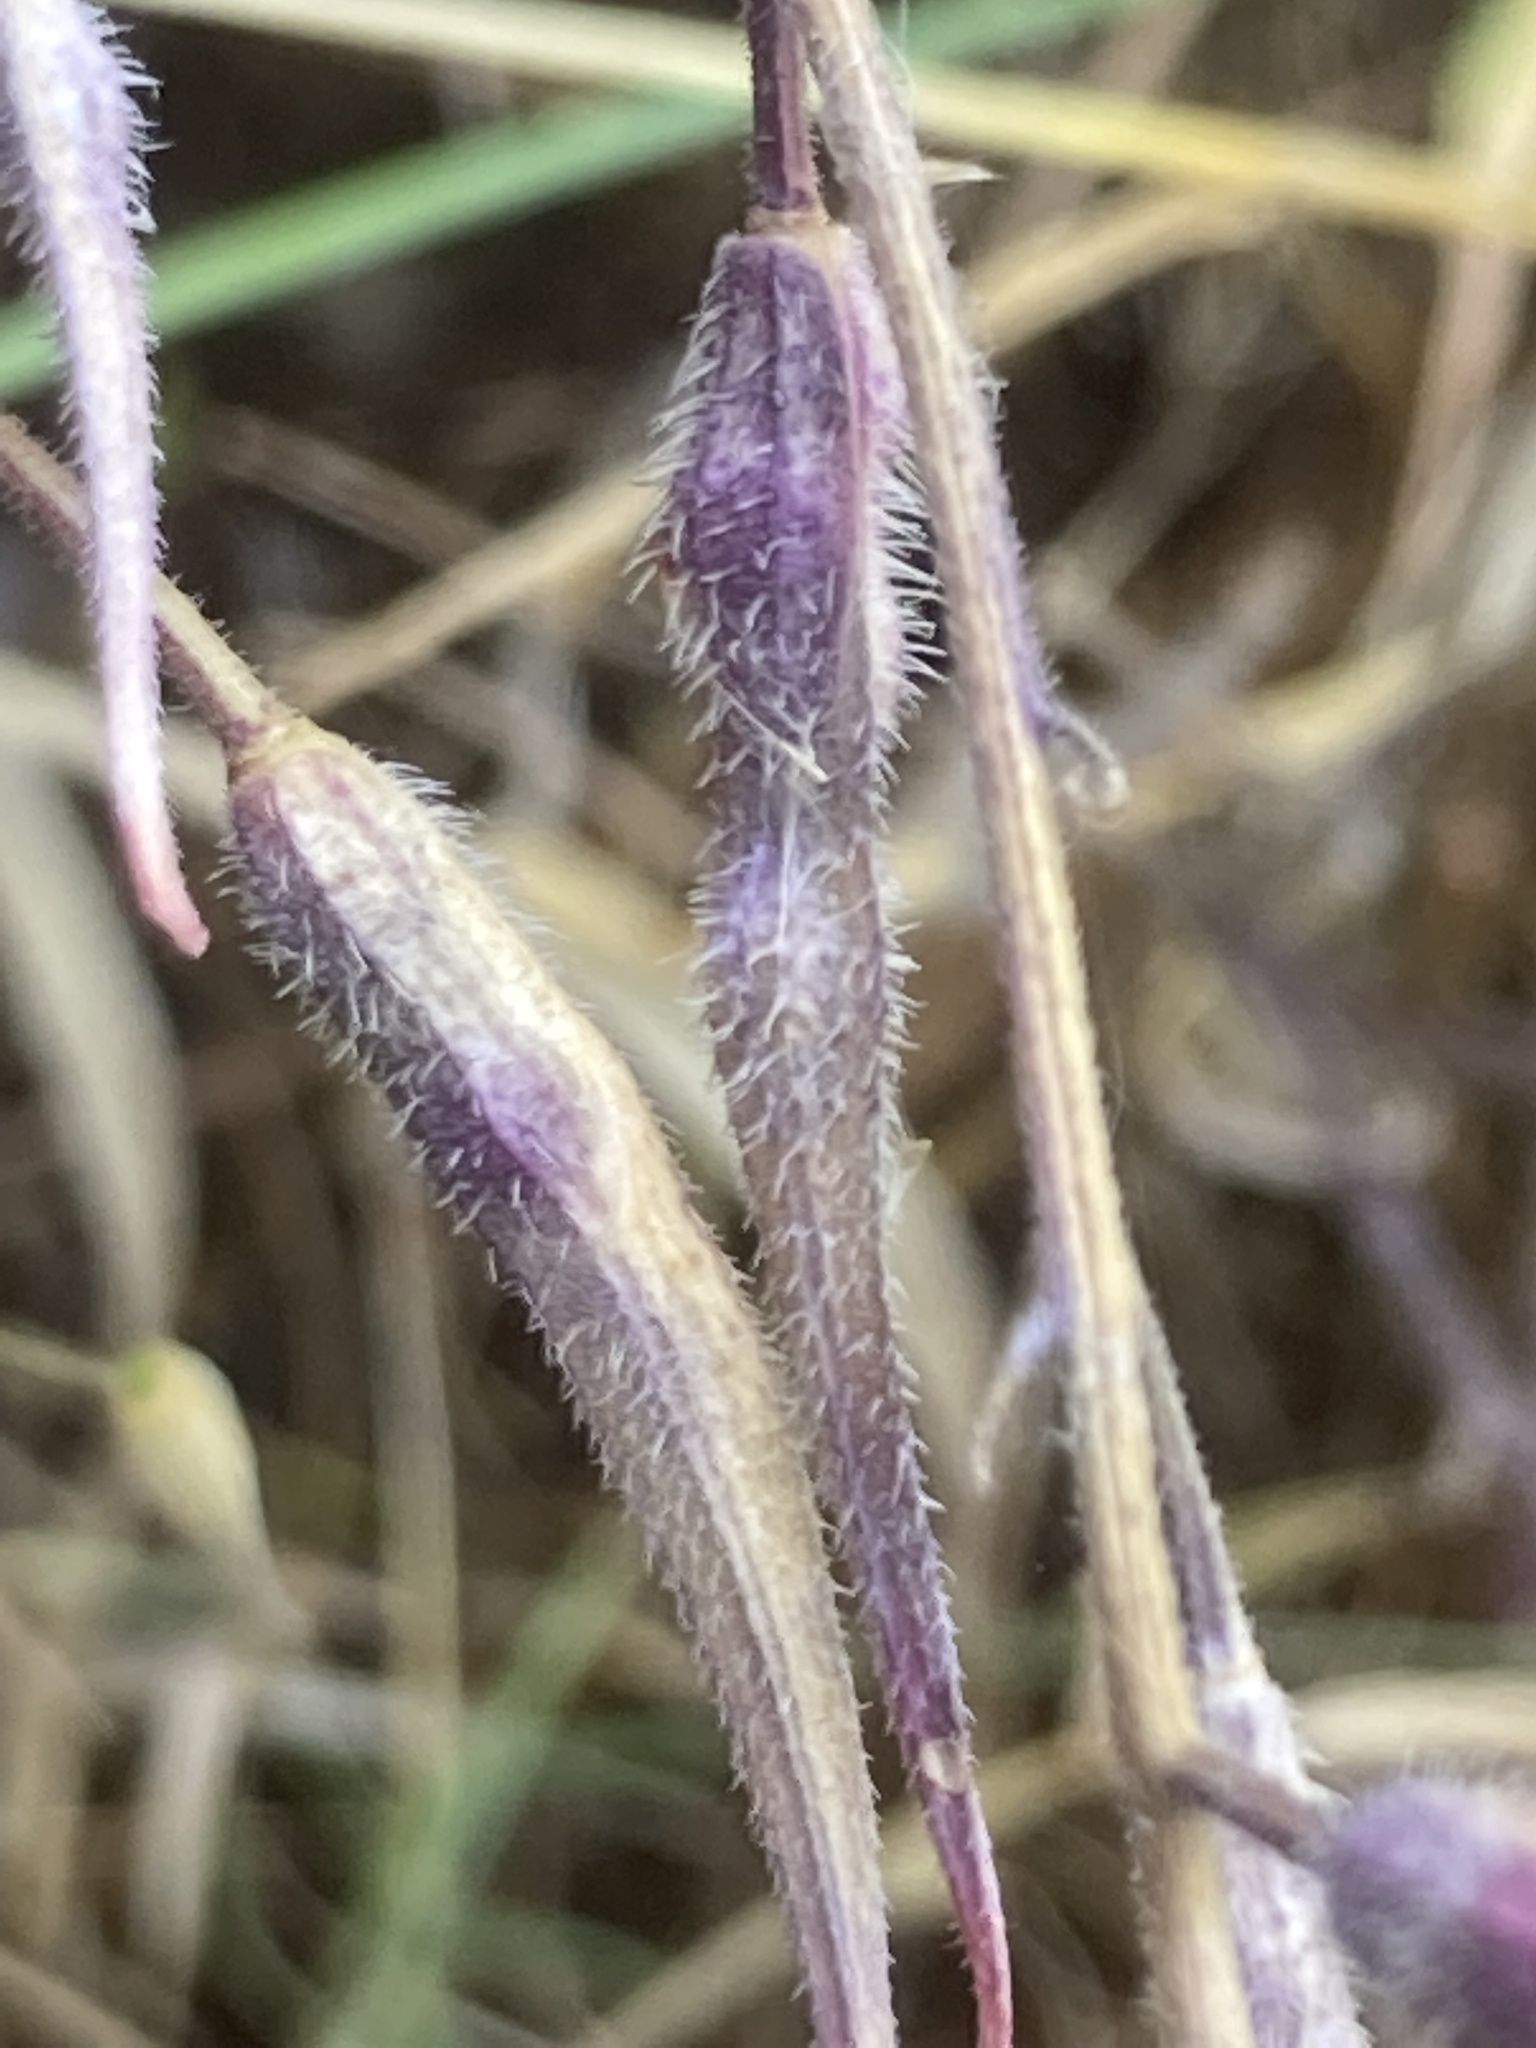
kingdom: Plantae
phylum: Tracheophyta
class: Magnoliopsida
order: Brassicales
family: Brassicaceae
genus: Sinapis
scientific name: Sinapis alba
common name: White mustard
